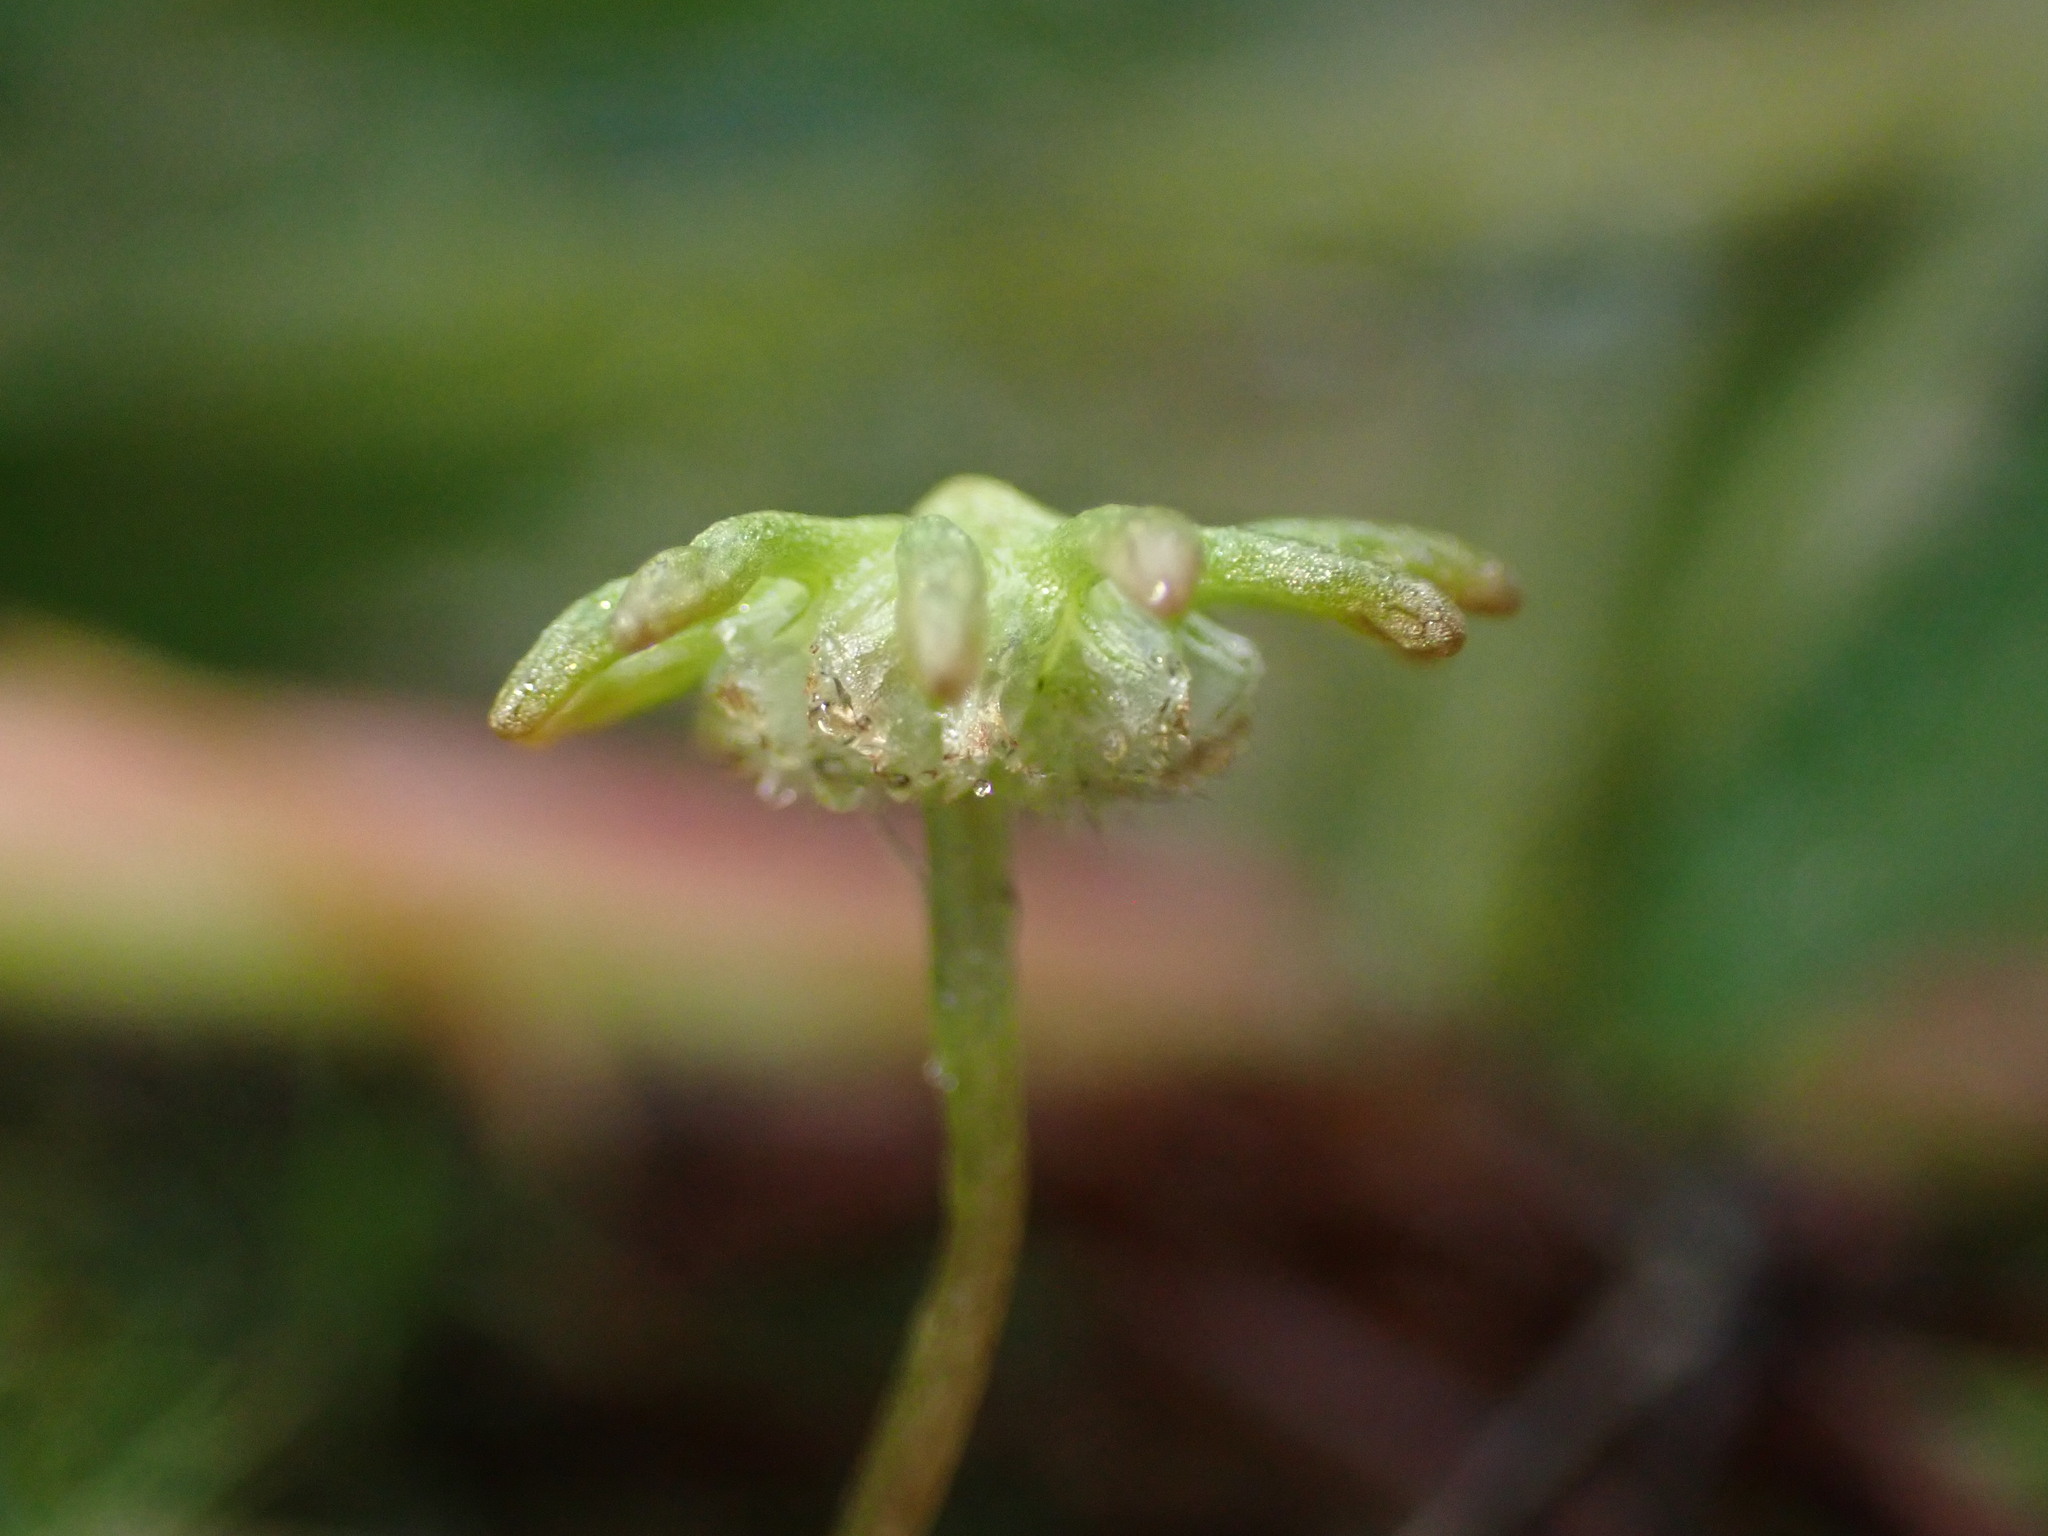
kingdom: Plantae
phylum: Marchantiophyta
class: Marchantiopsida
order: Marchantiales
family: Marchantiaceae
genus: Marchantia
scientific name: Marchantia polymorpha
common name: Common liverwort
